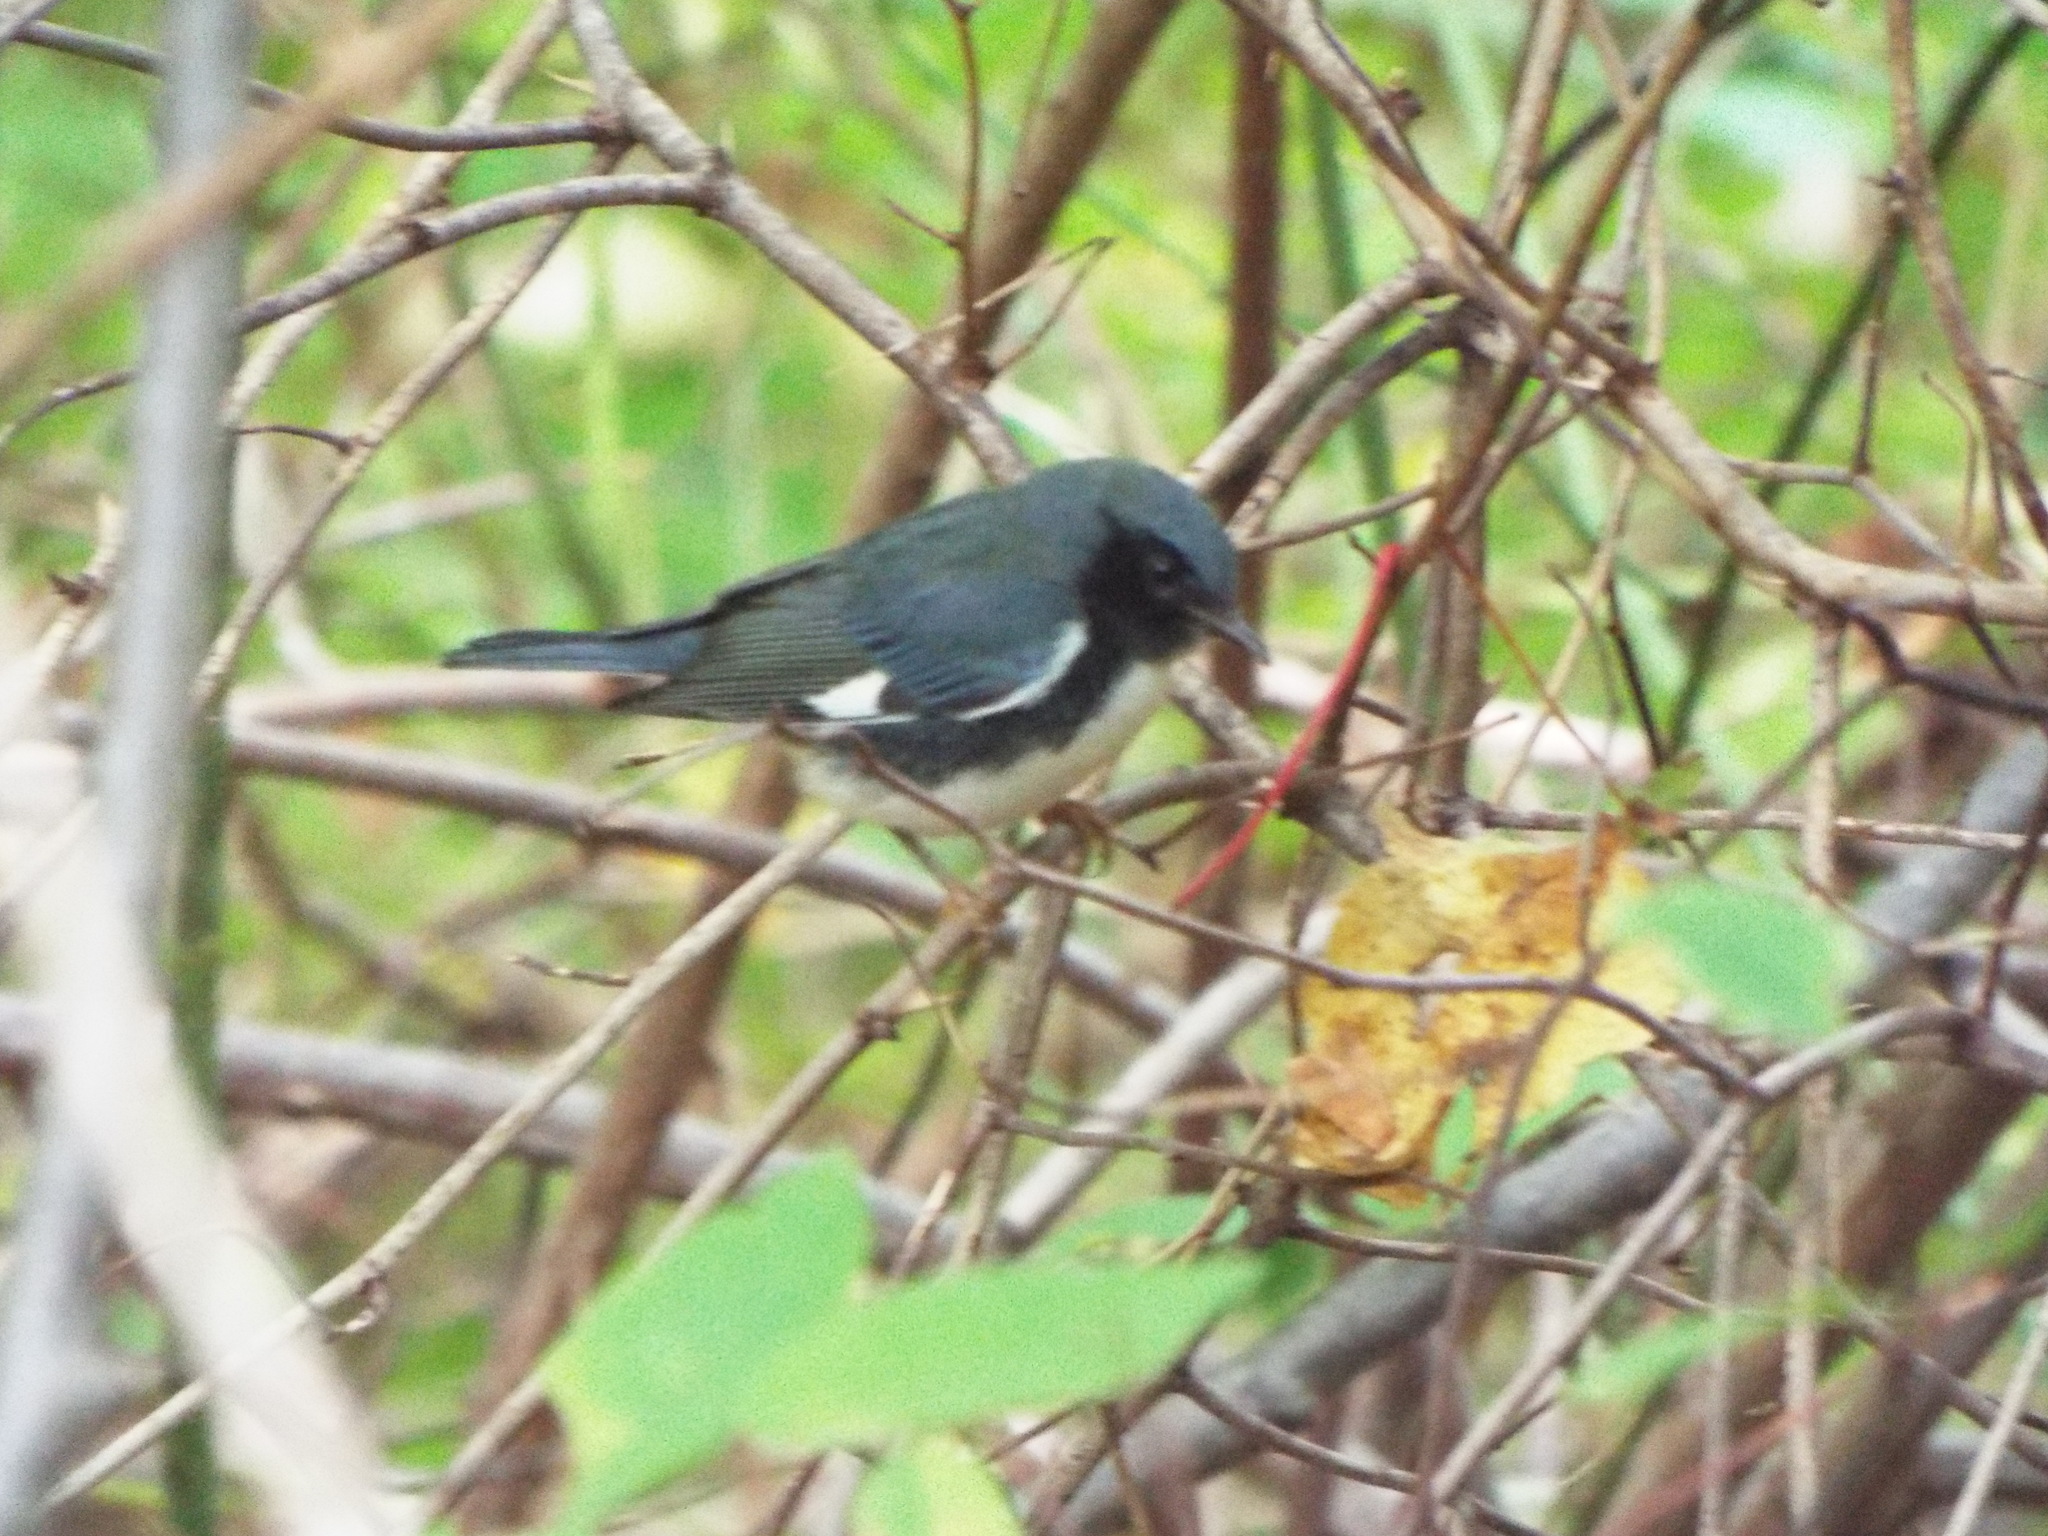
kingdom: Animalia
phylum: Chordata
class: Aves
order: Passeriformes
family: Parulidae
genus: Setophaga
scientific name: Setophaga caerulescens
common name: Black-throated blue warbler
